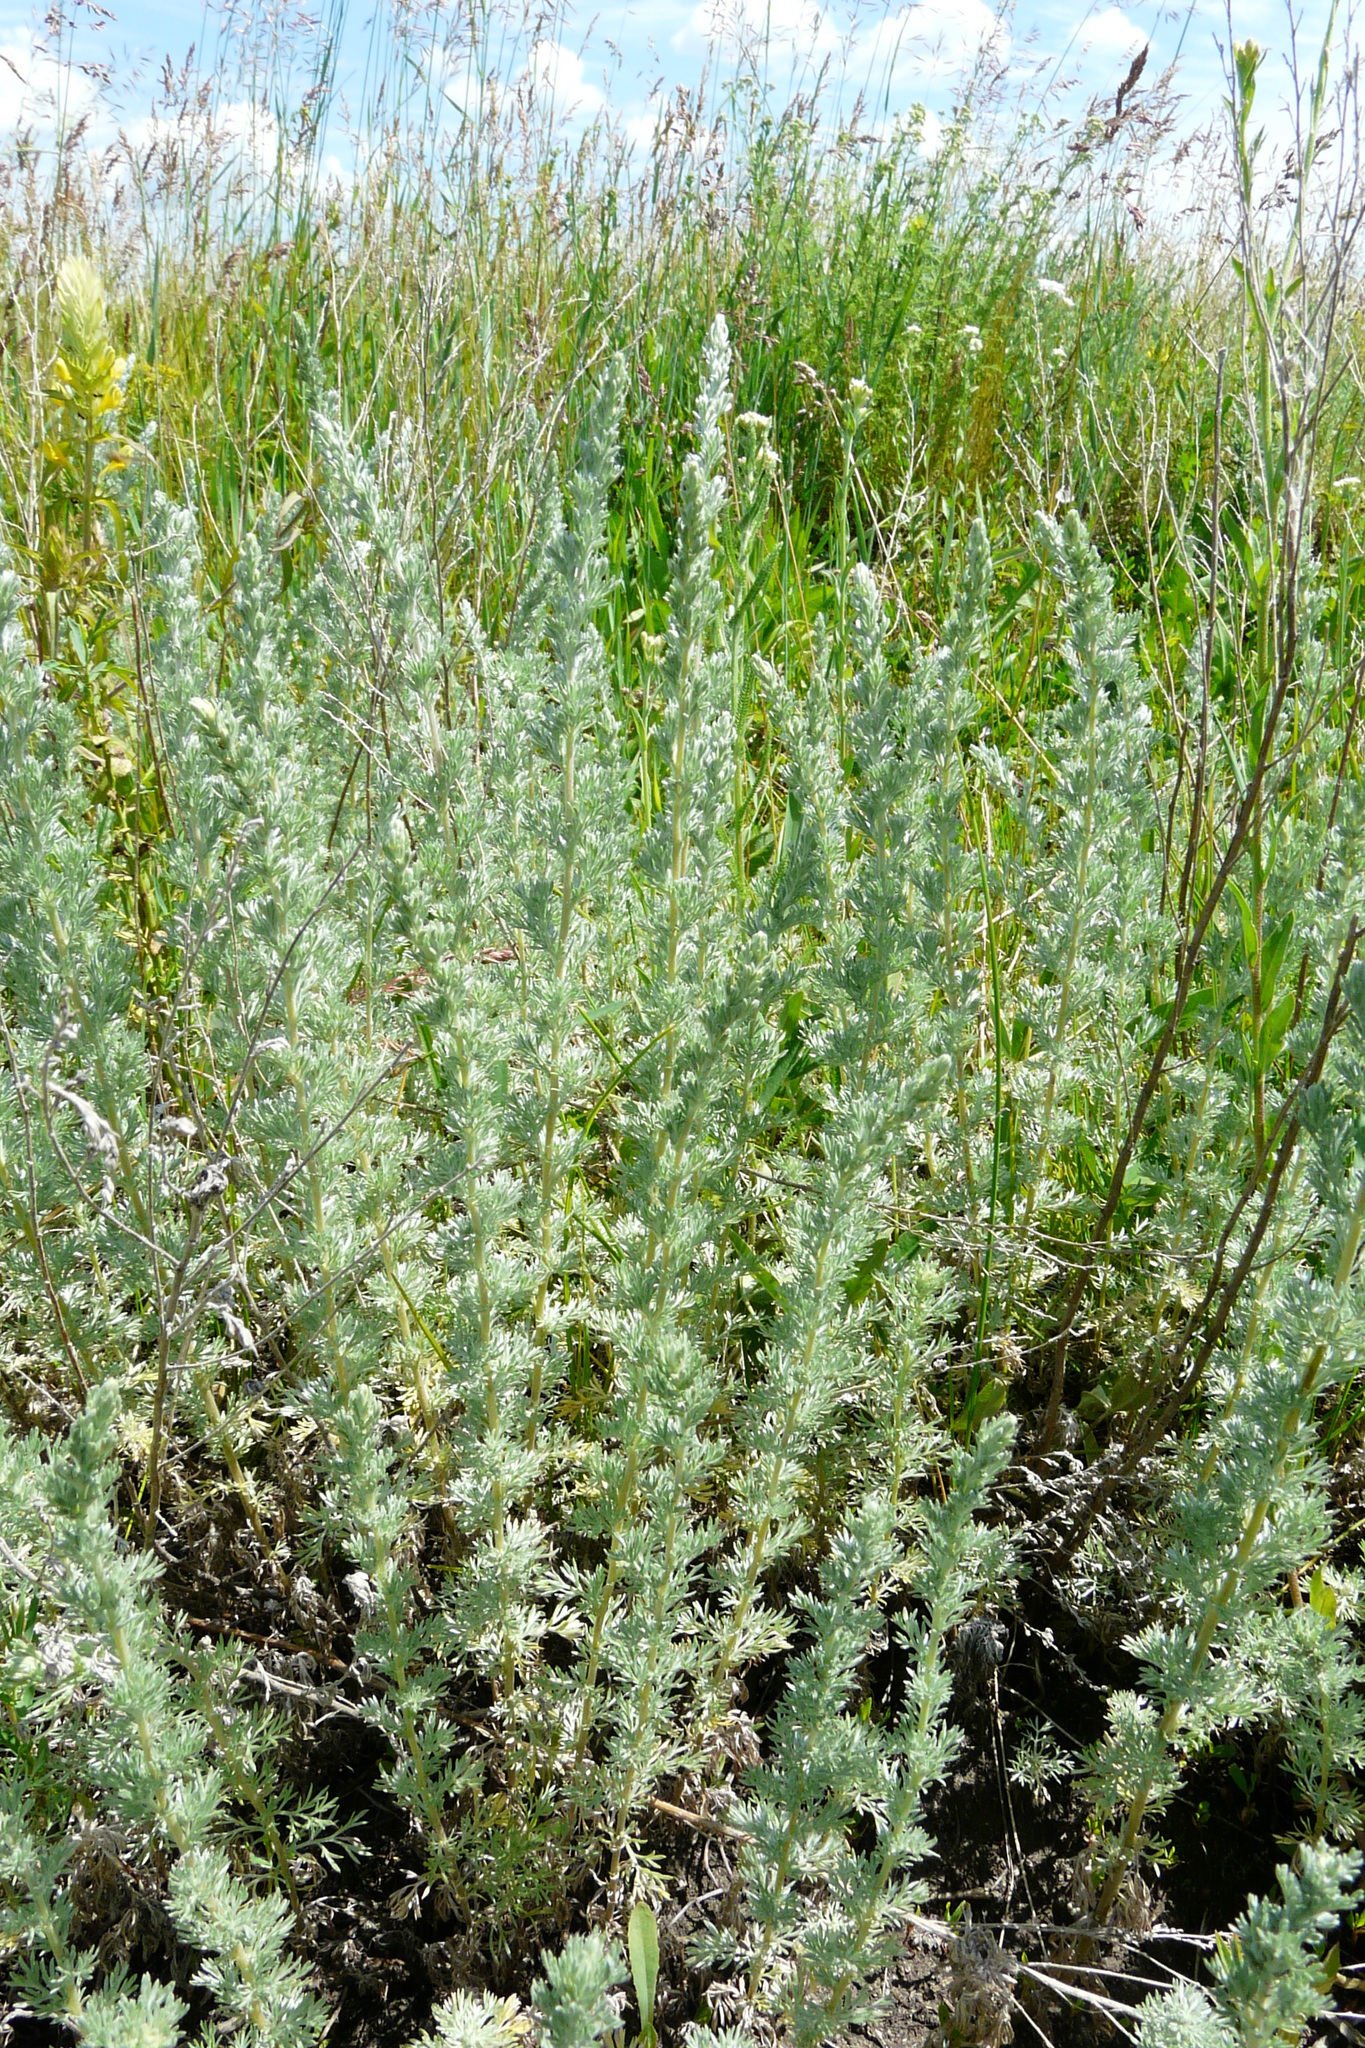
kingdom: Plantae
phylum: Tracheophyta
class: Magnoliopsida
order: Asterales
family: Asteraceae
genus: Artemisia
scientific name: Artemisia austriaca
